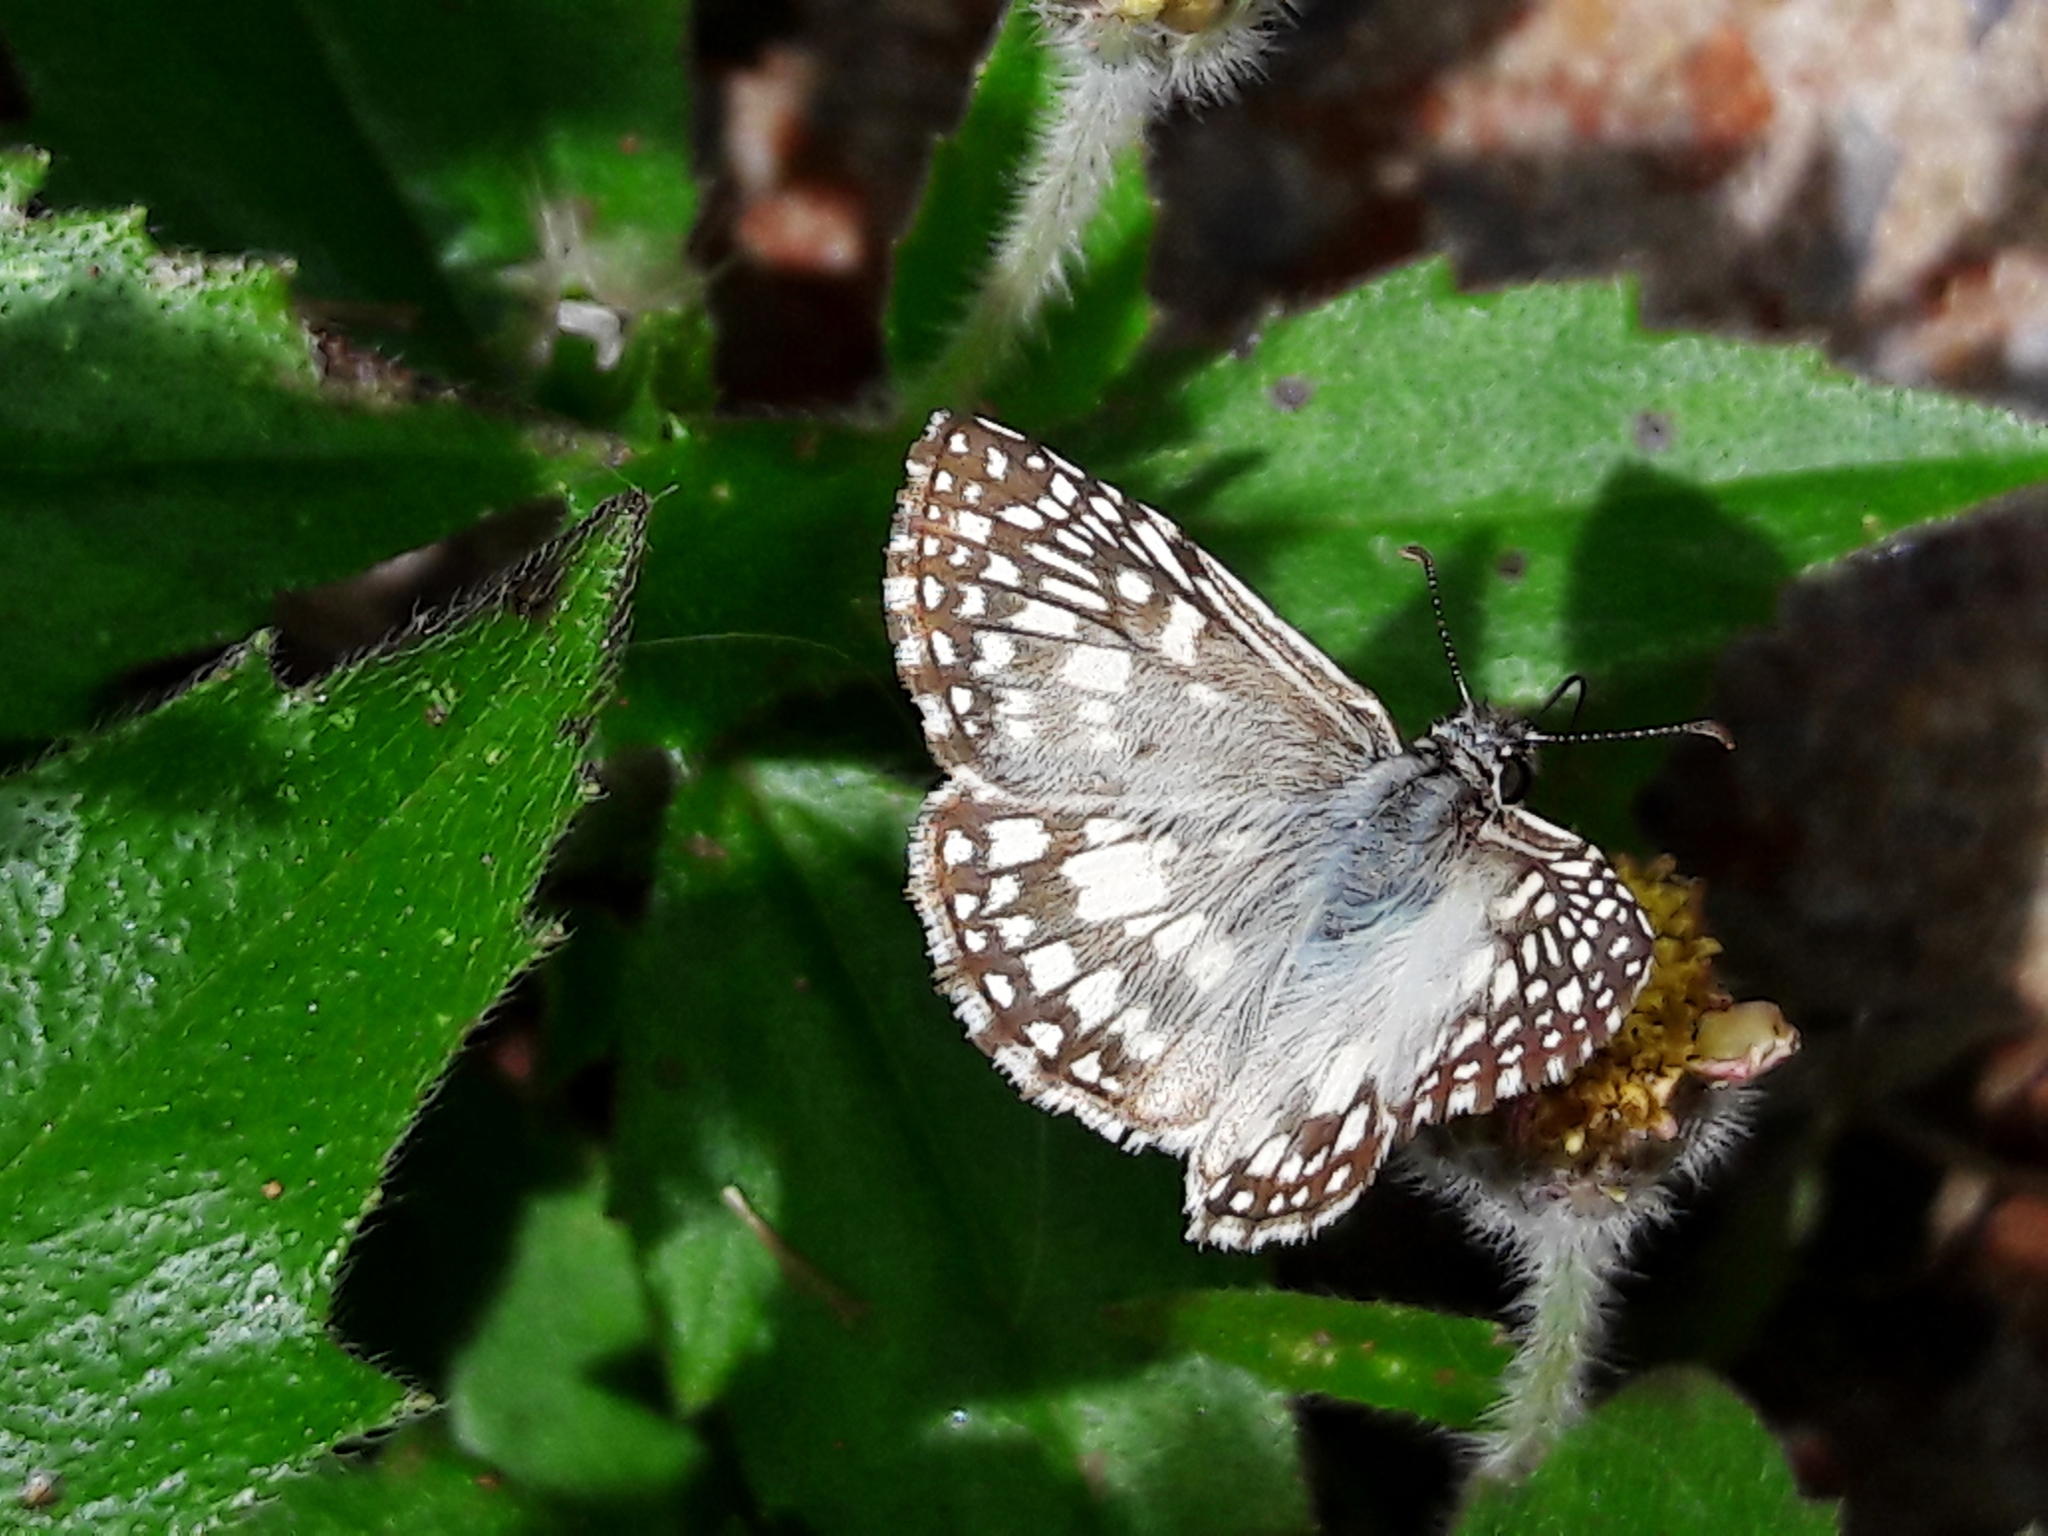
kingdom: Animalia
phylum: Arthropoda
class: Insecta
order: Lepidoptera
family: Hesperiidae
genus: Pyrgus
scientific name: Pyrgus oileus
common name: Tropical checkered-skipper
